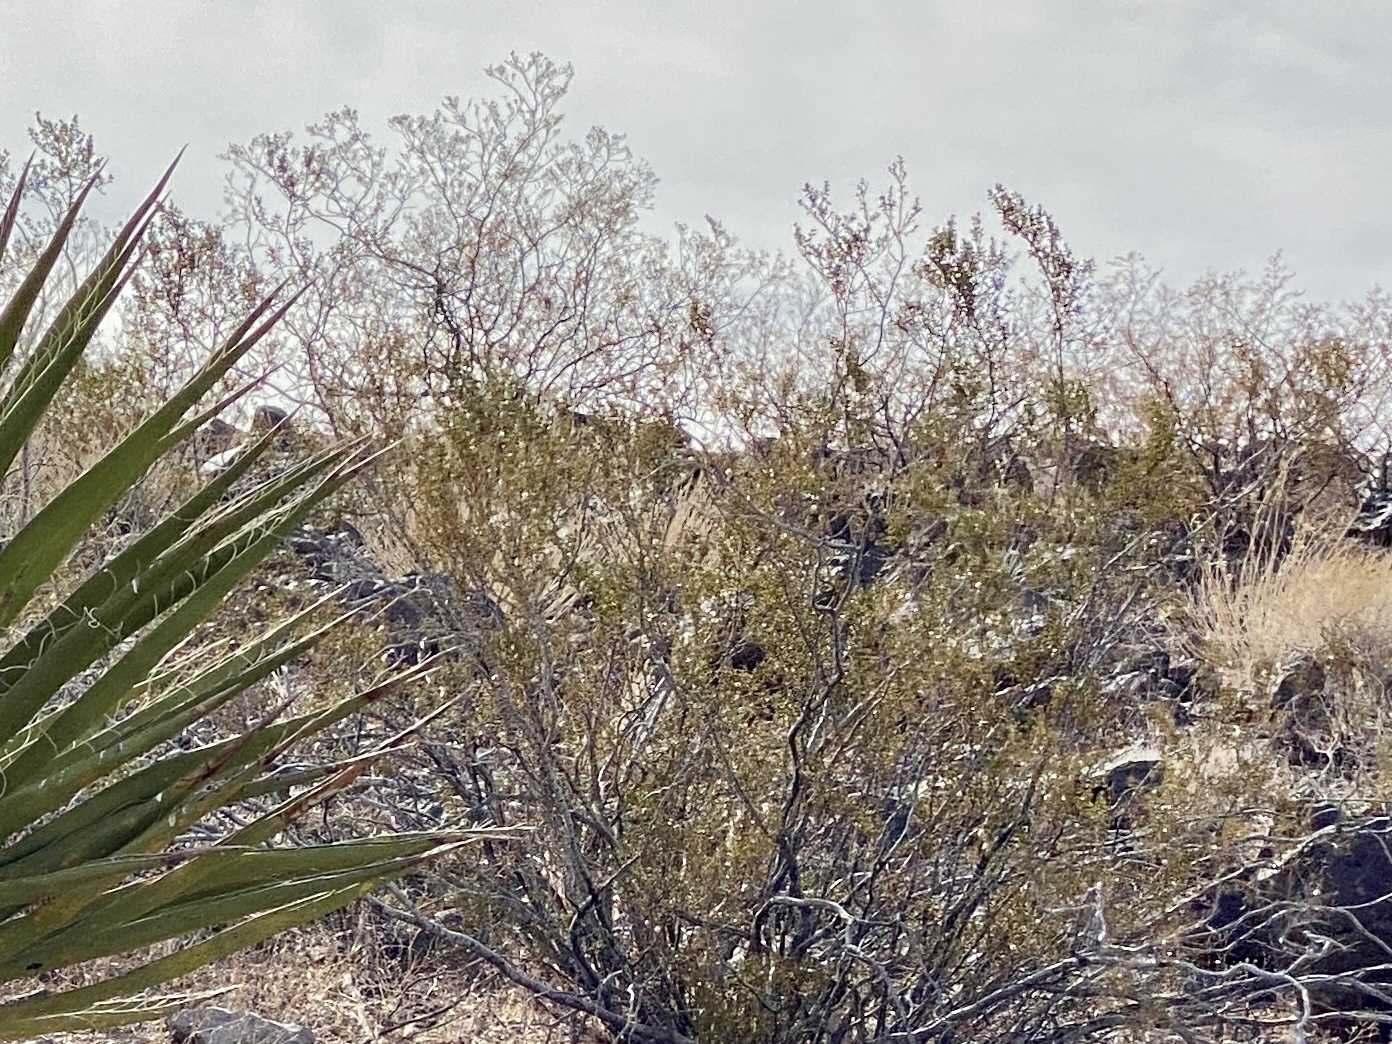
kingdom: Plantae
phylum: Tracheophyta
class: Magnoliopsida
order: Zygophyllales
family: Zygophyllaceae
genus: Larrea
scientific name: Larrea tridentata
